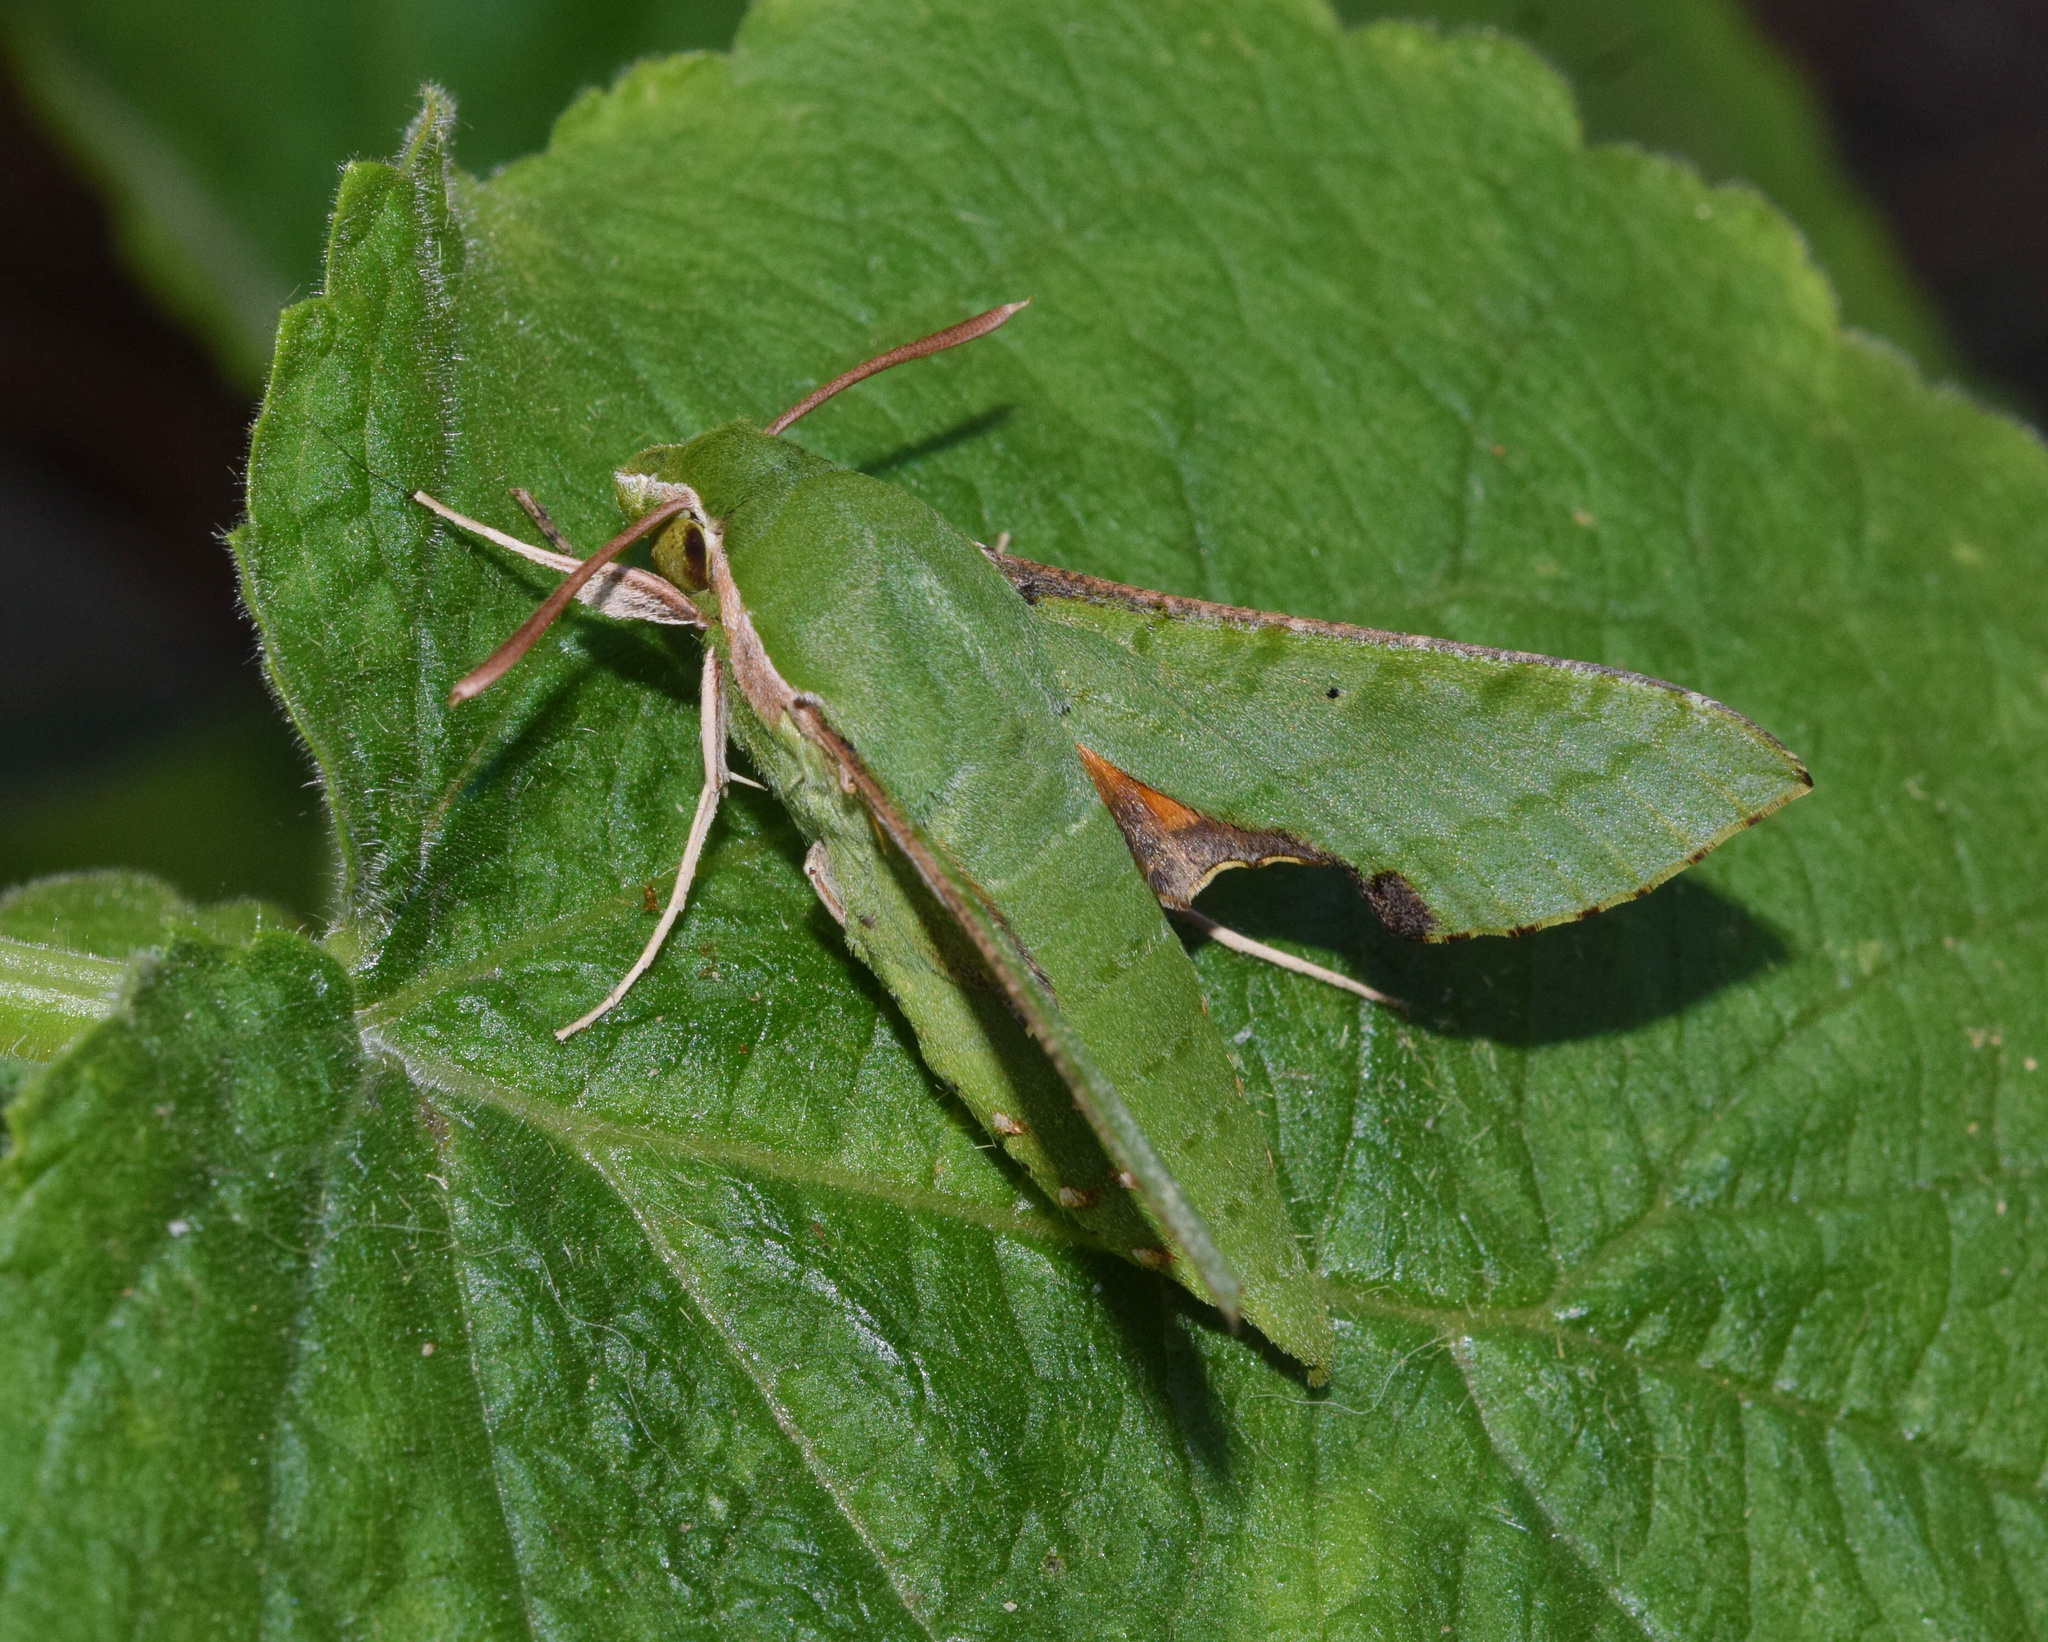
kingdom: Animalia
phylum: Arthropoda
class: Insecta
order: Lepidoptera
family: Sphingidae
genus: Basiothia
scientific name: Basiothia medea
